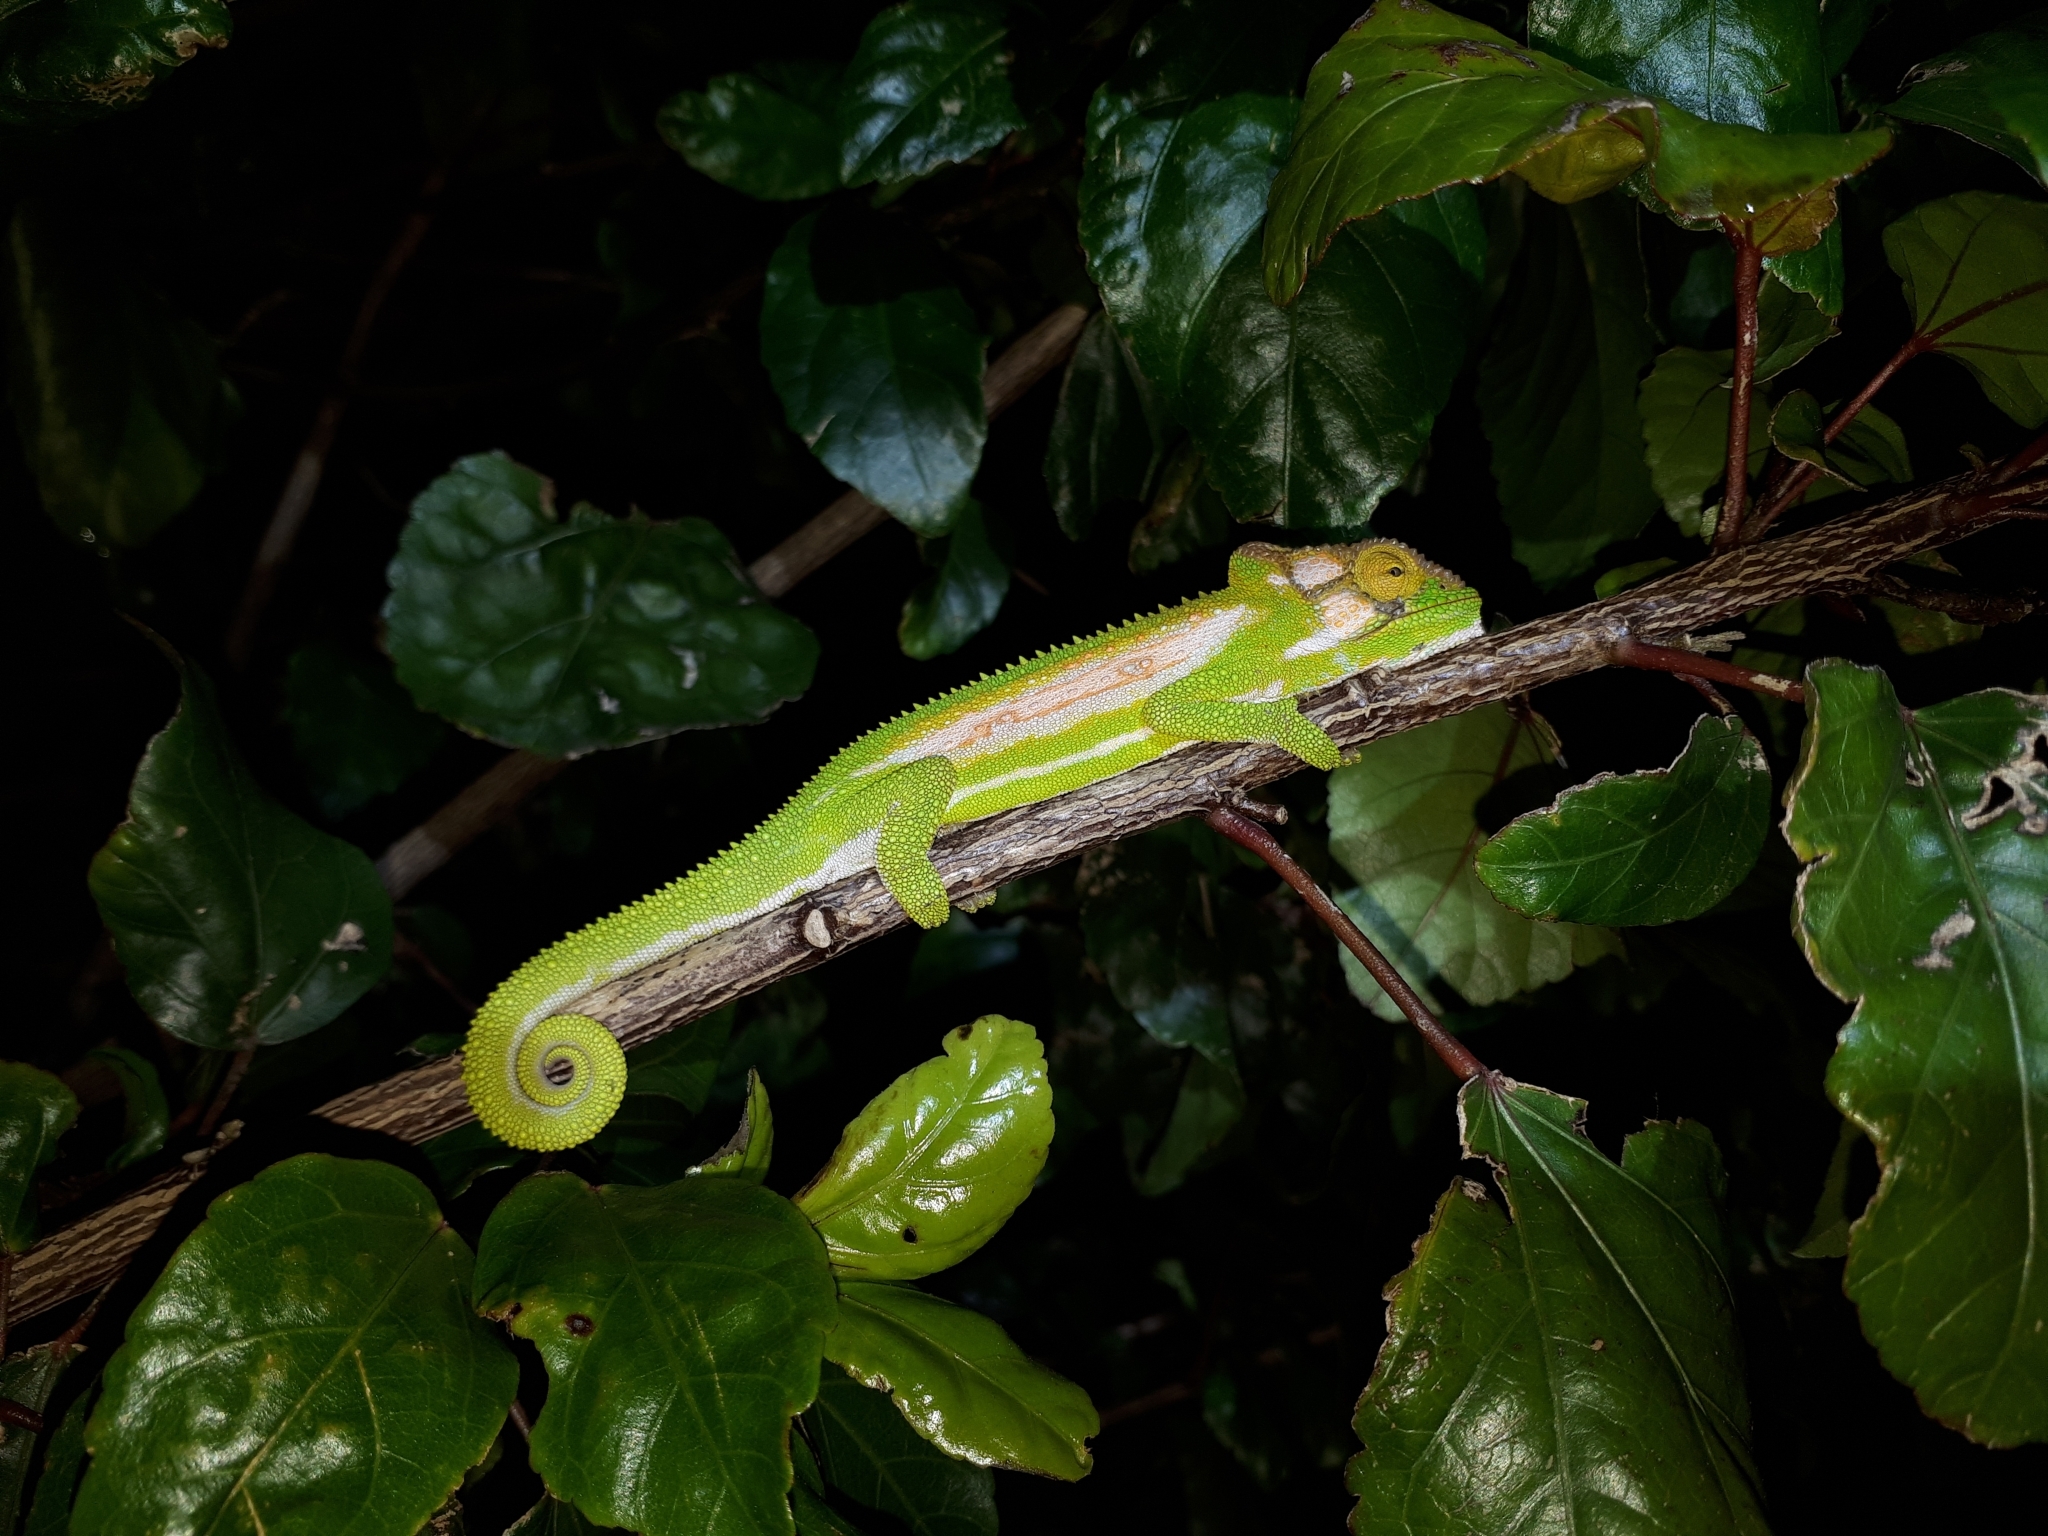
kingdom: Animalia
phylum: Chordata
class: Squamata
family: Chamaeleonidae
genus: Bradypodion
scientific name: Bradypodion pumilum
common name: Cape dwarf chameleon
